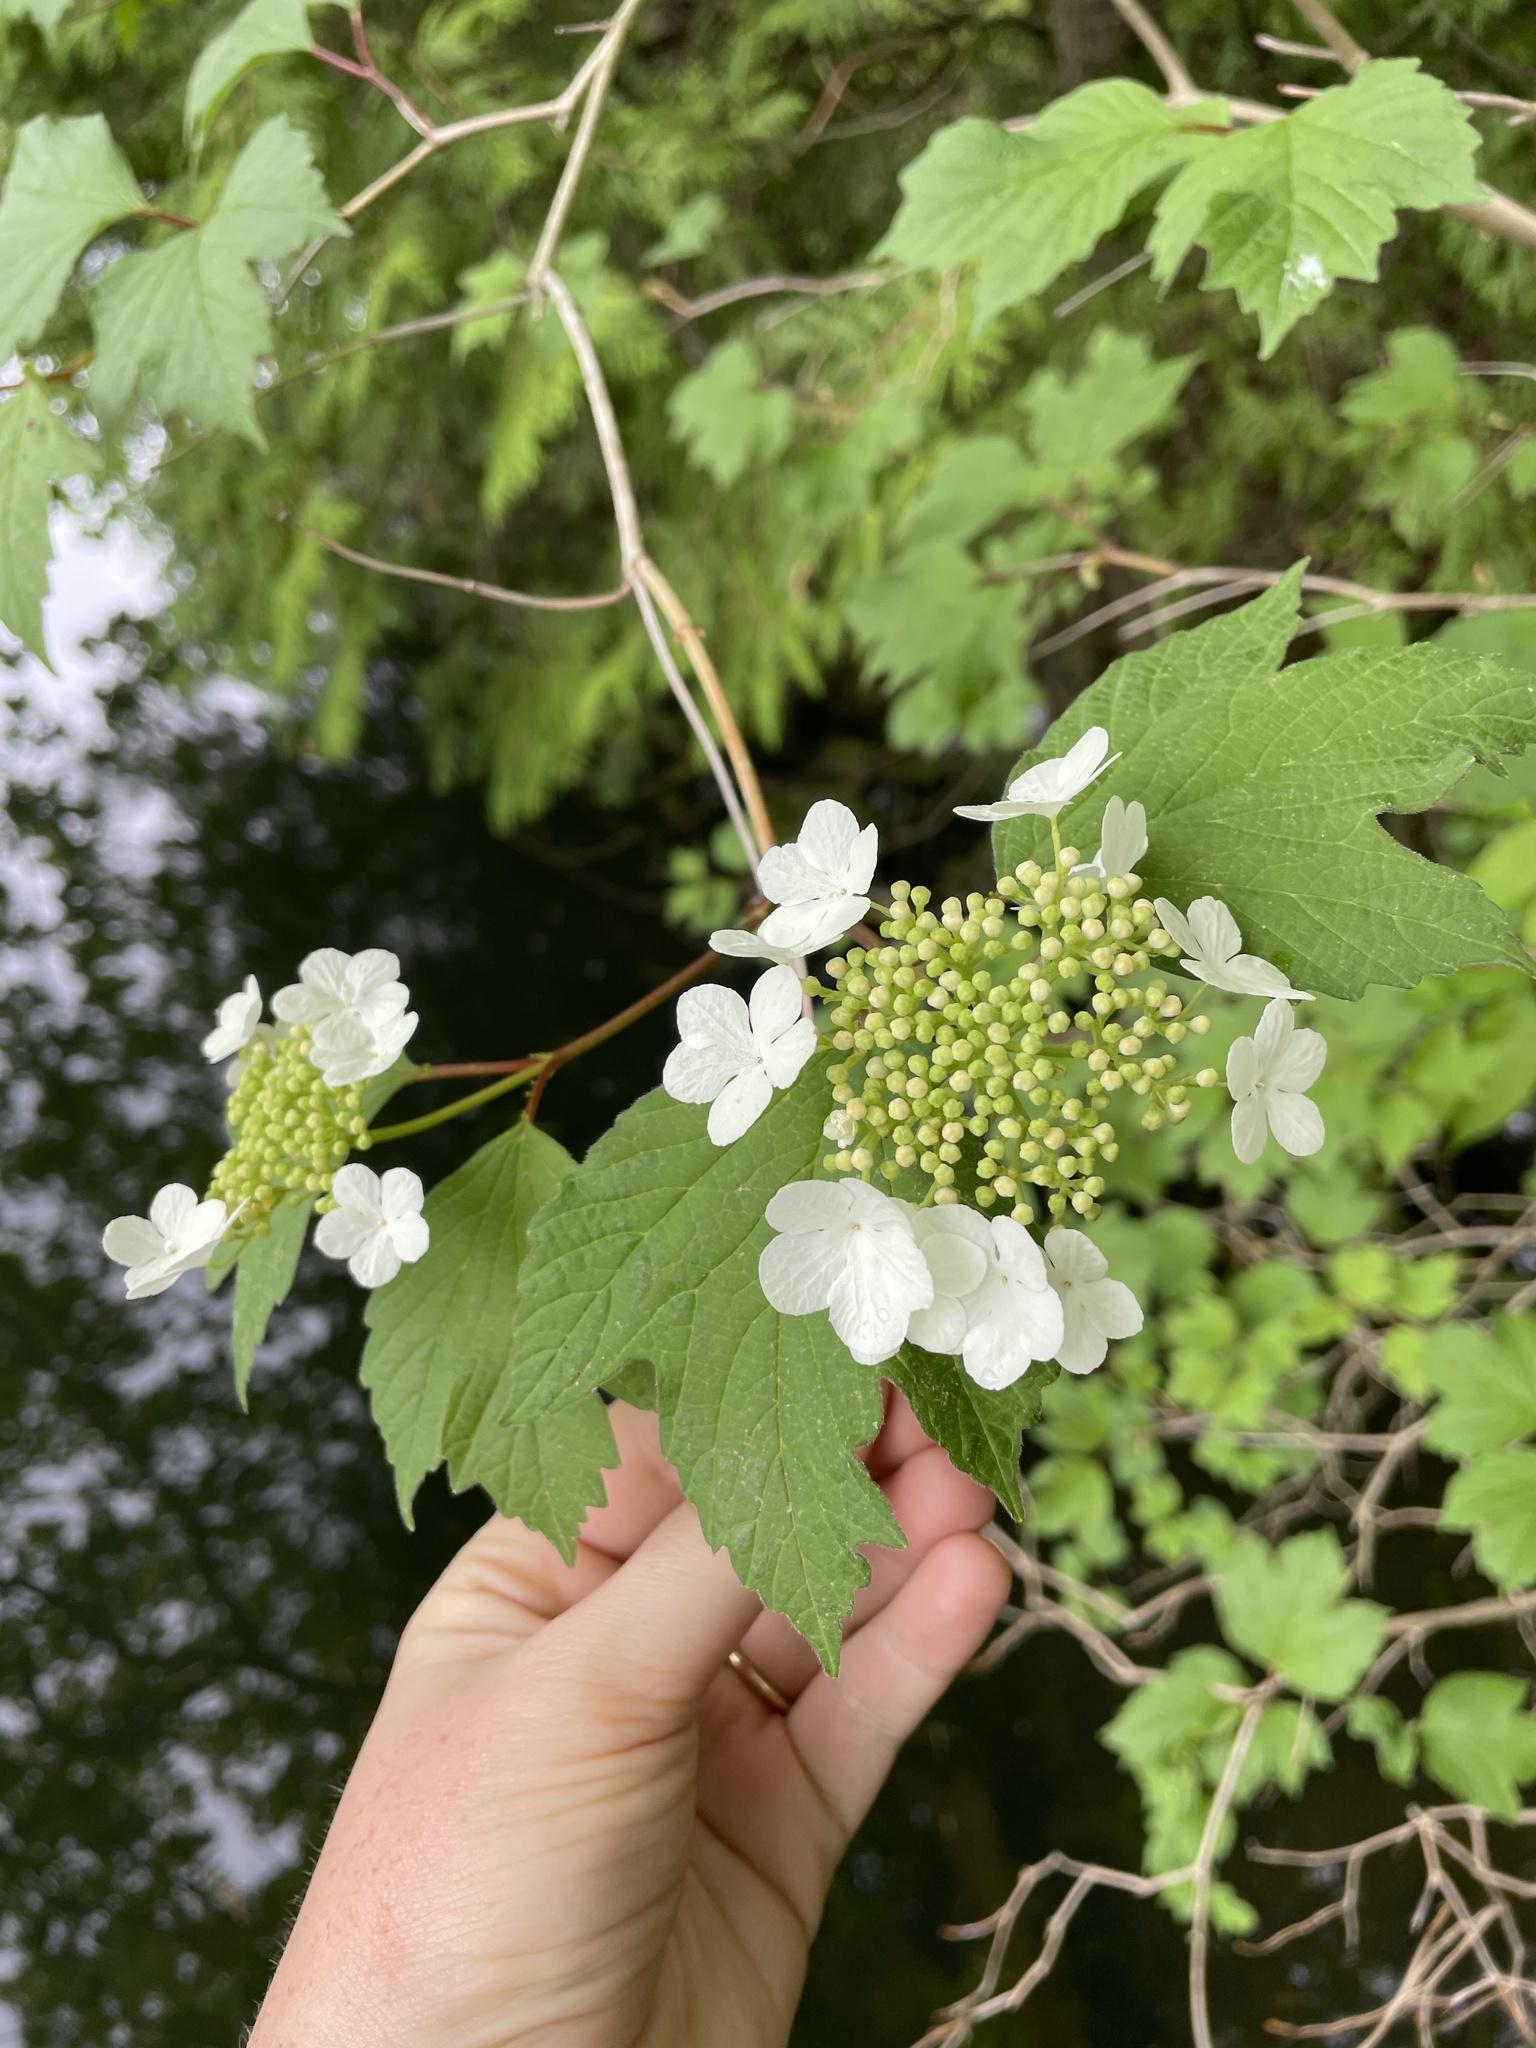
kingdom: Plantae
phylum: Tracheophyta
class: Magnoliopsida
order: Dipsacales
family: Viburnaceae
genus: Viburnum
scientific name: Viburnum opulus
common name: Guelder-rose
